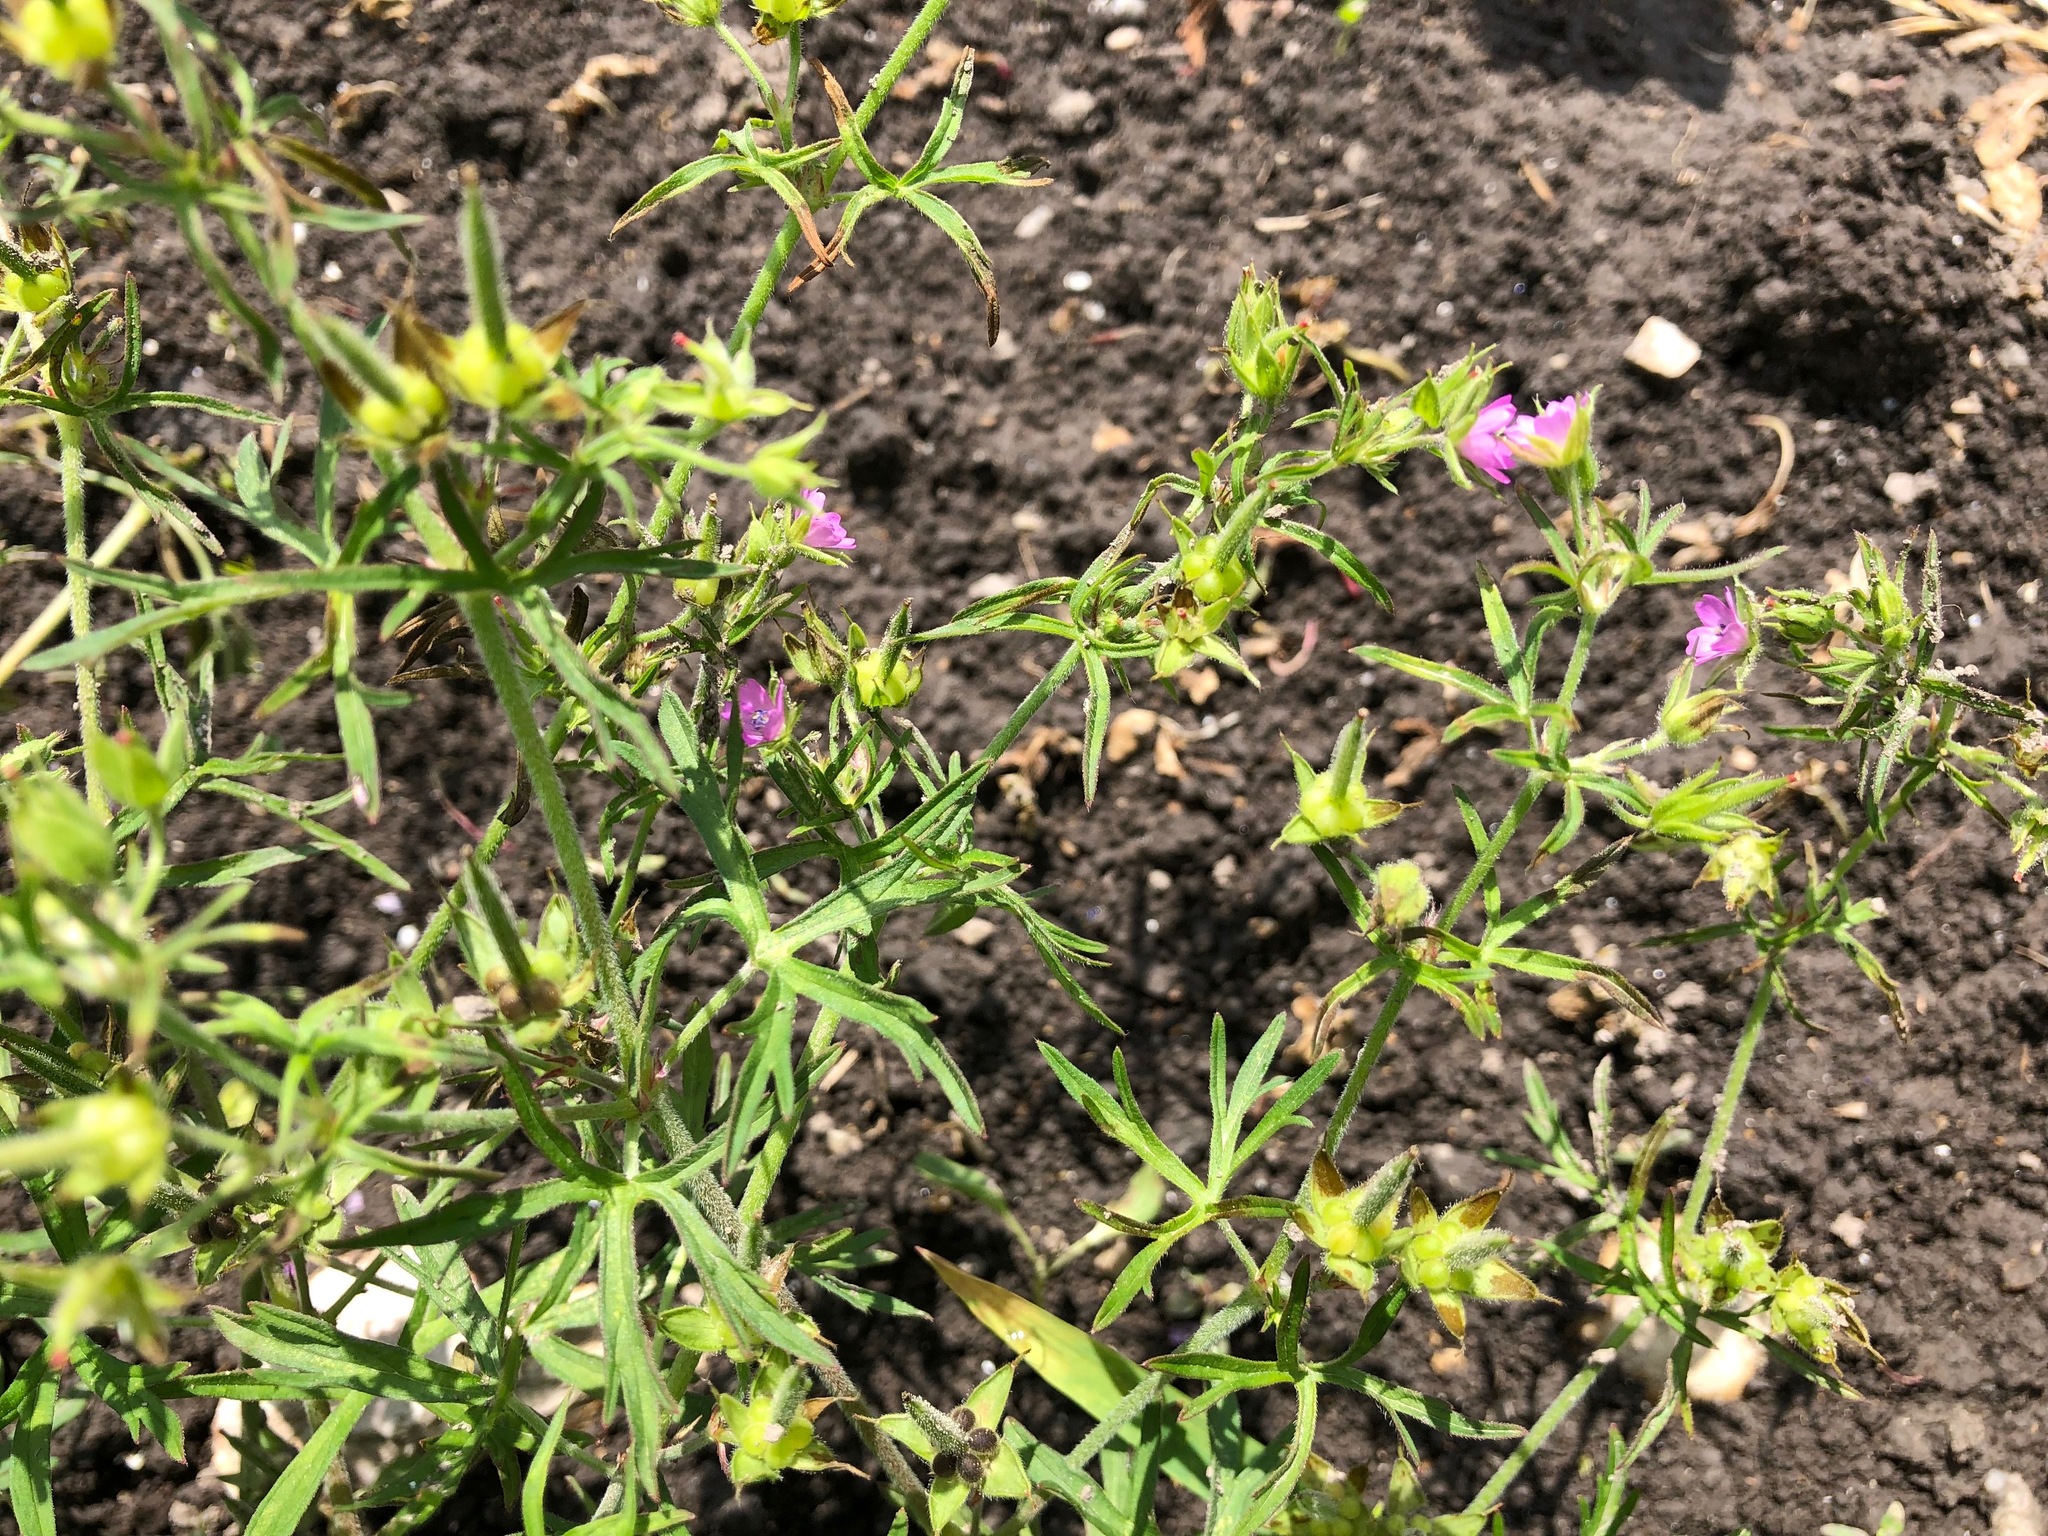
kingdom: Plantae
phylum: Tracheophyta
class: Magnoliopsida
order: Geraniales
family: Geraniaceae
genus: Geranium
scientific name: Geranium dissectum
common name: Cut-leaved crane's-bill
